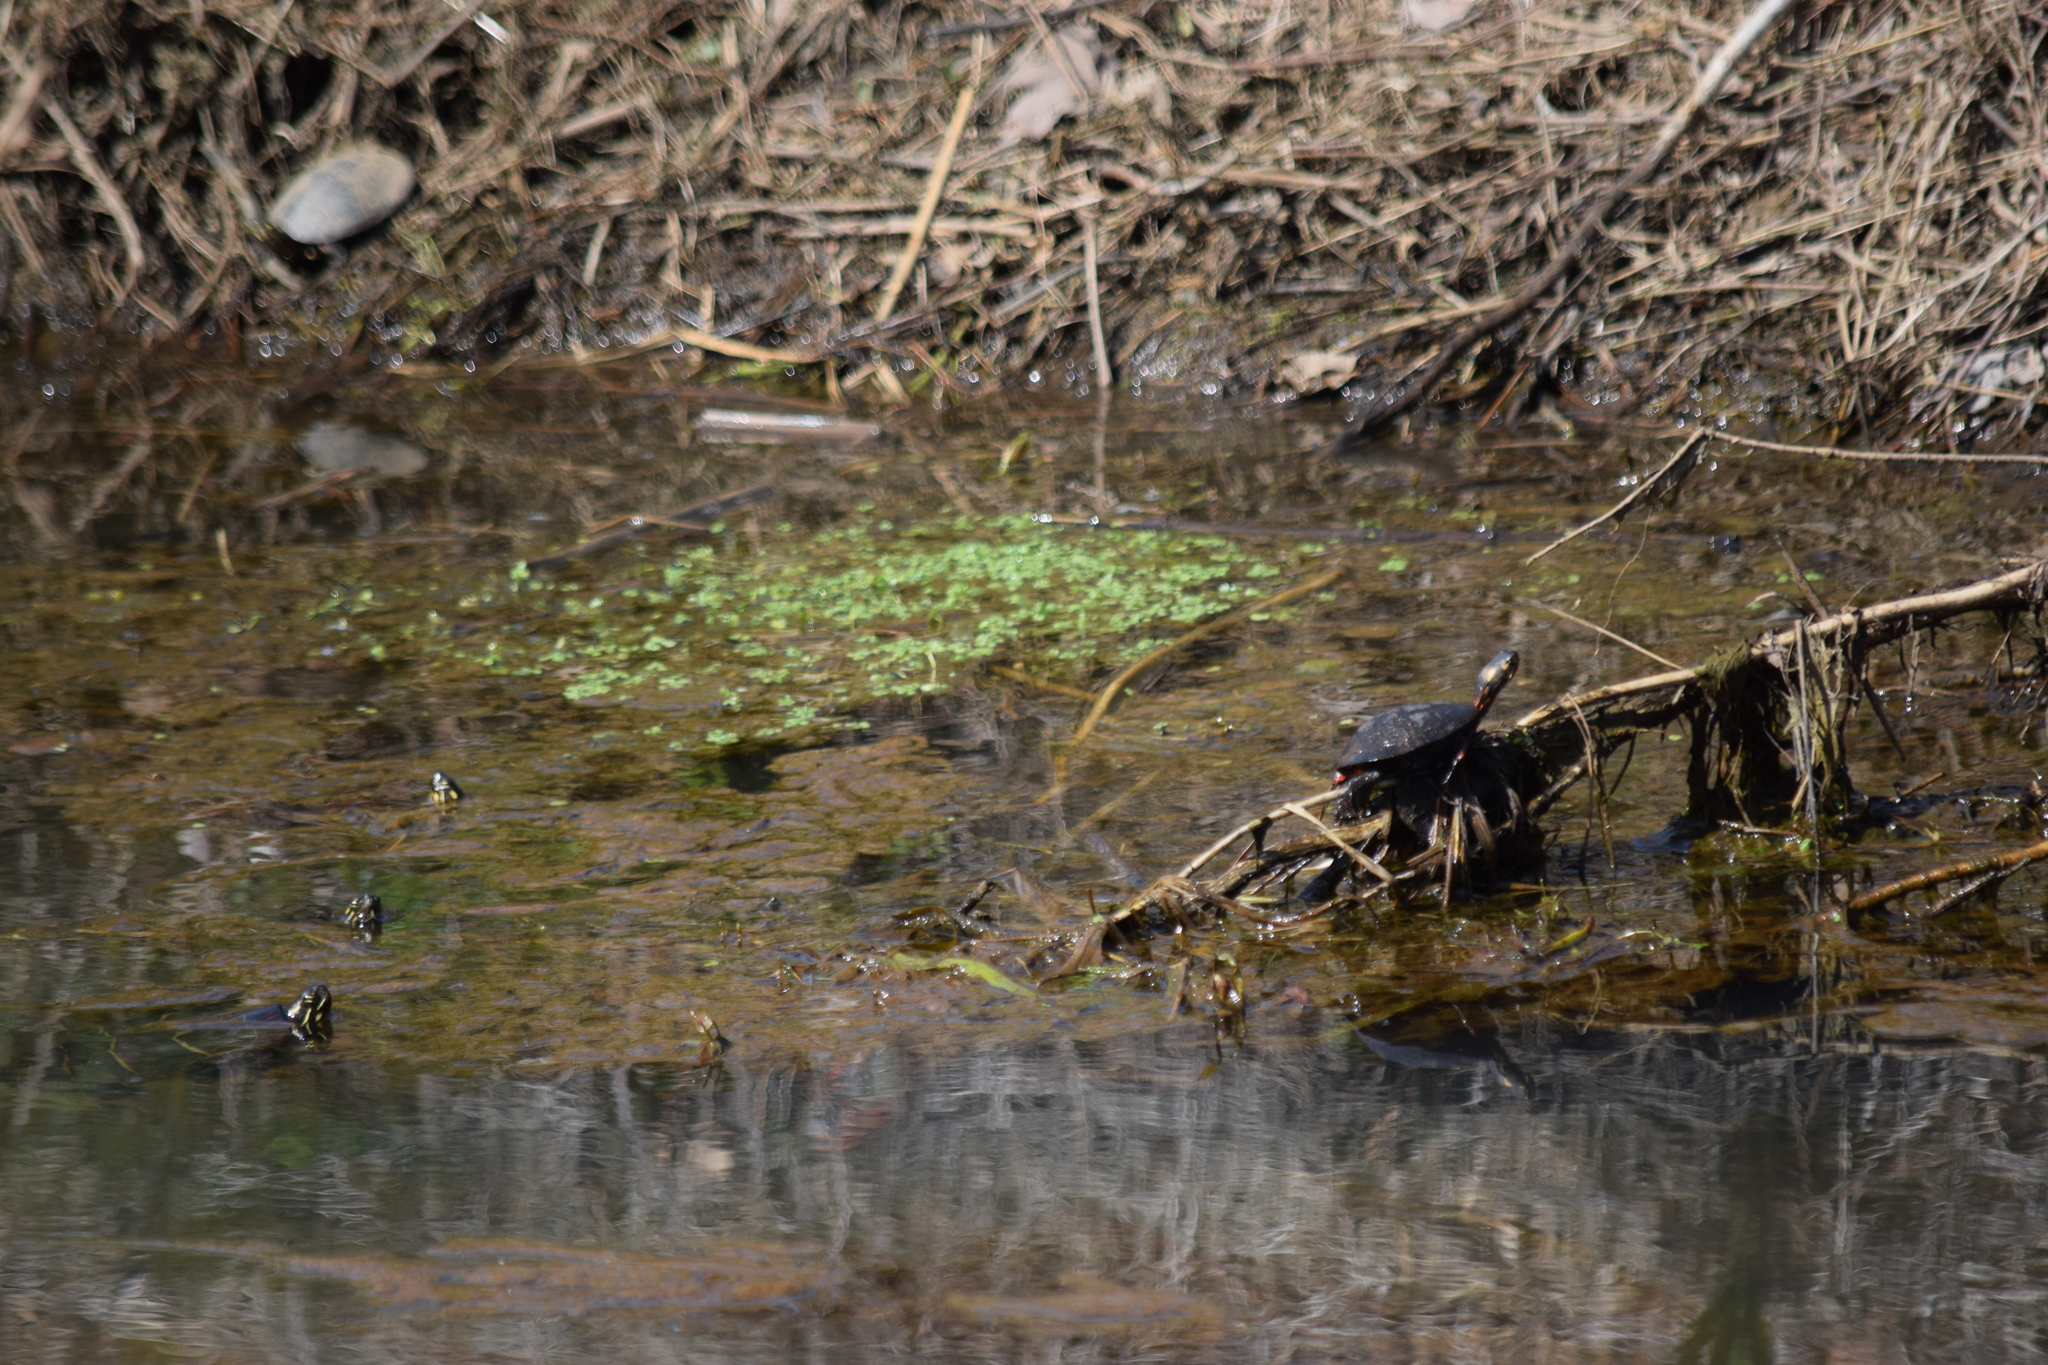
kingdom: Animalia
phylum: Chordata
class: Testudines
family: Emydidae
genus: Chrysemys
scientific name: Chrysemys picta
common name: Painted turtle
